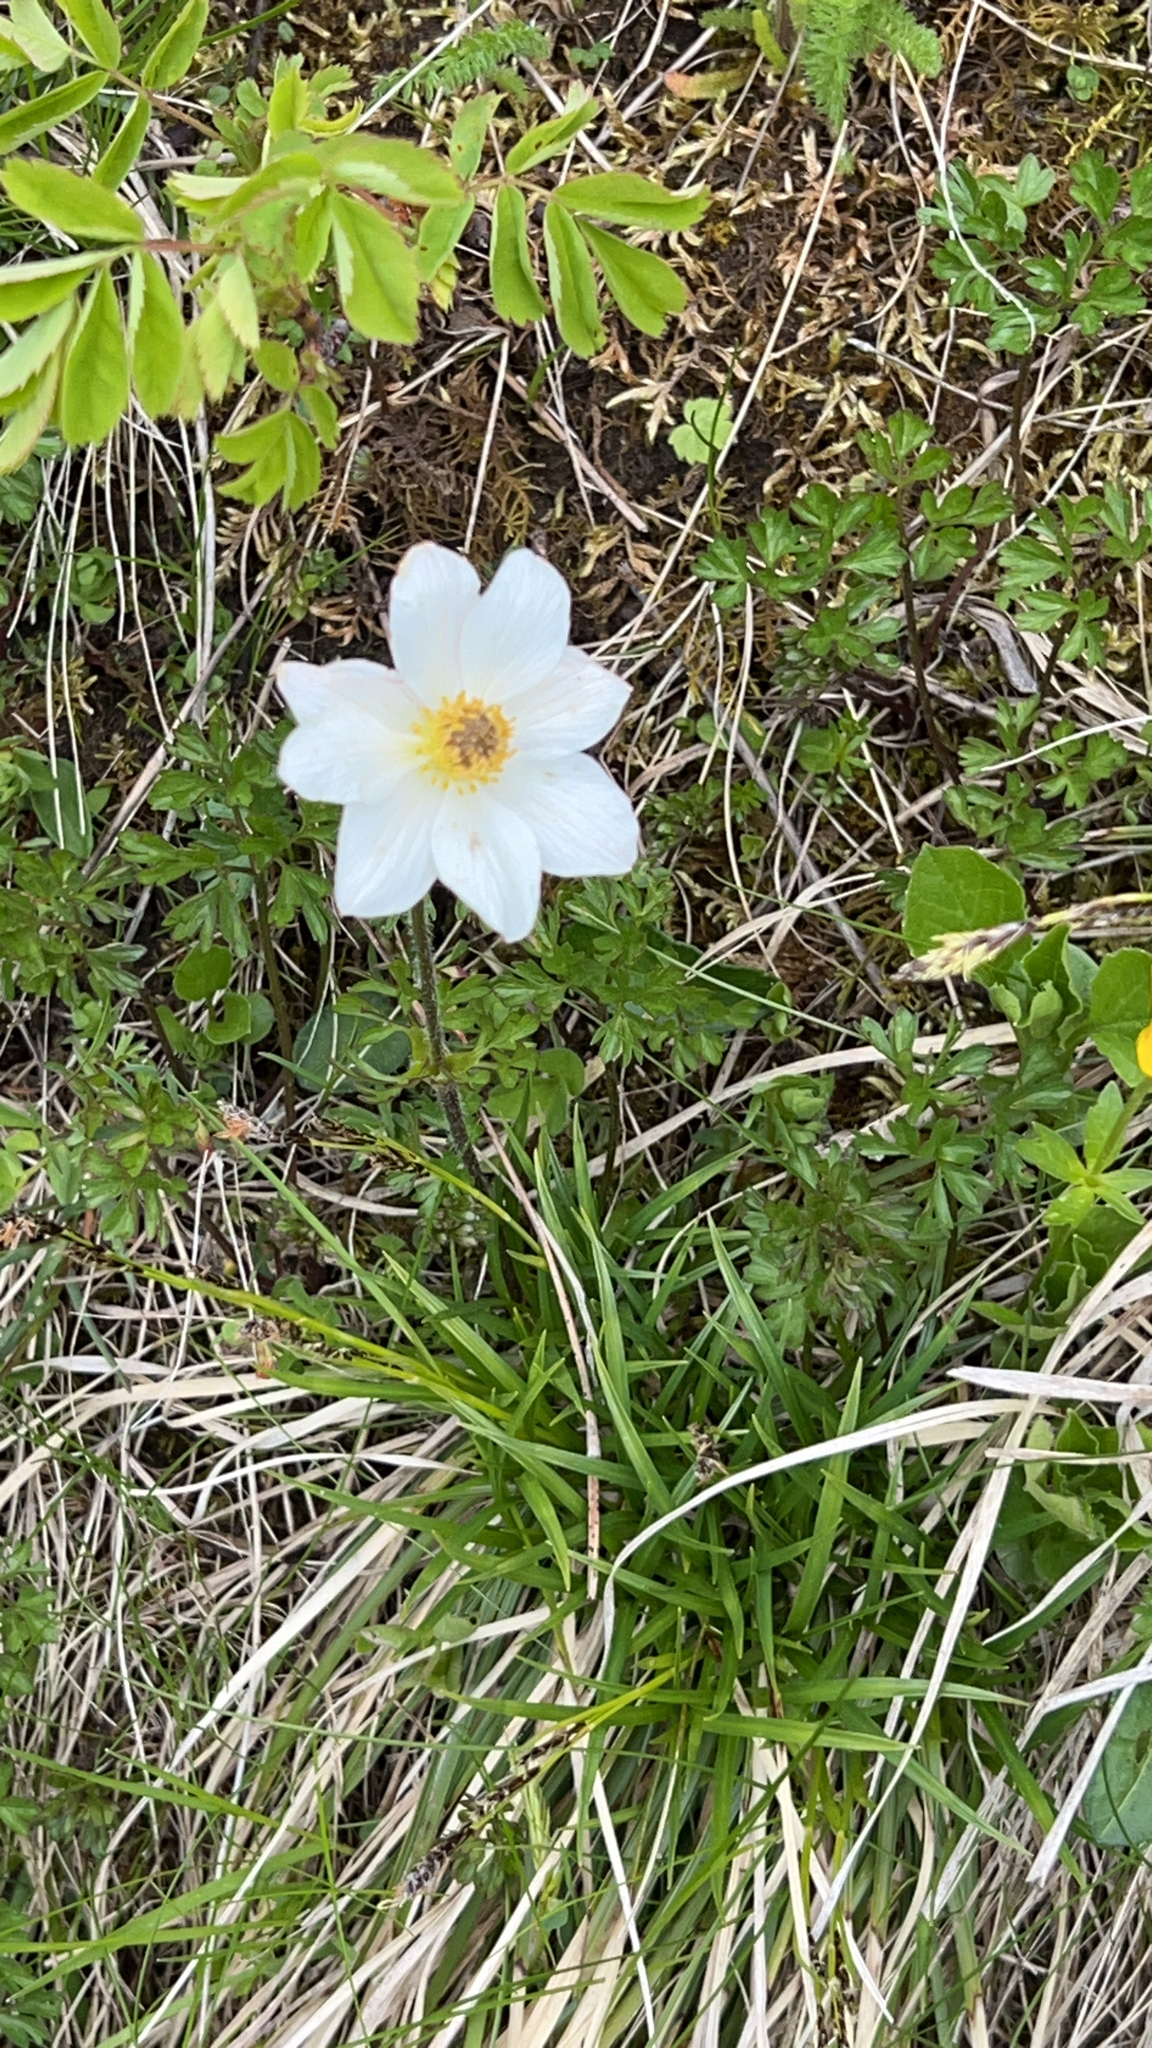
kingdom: Plantae
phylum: Tracheophyta
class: Magnoliopsida
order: Ranunculales
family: Ranunculaceae
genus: Pulsatilla
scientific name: Pulsatilla alpina
